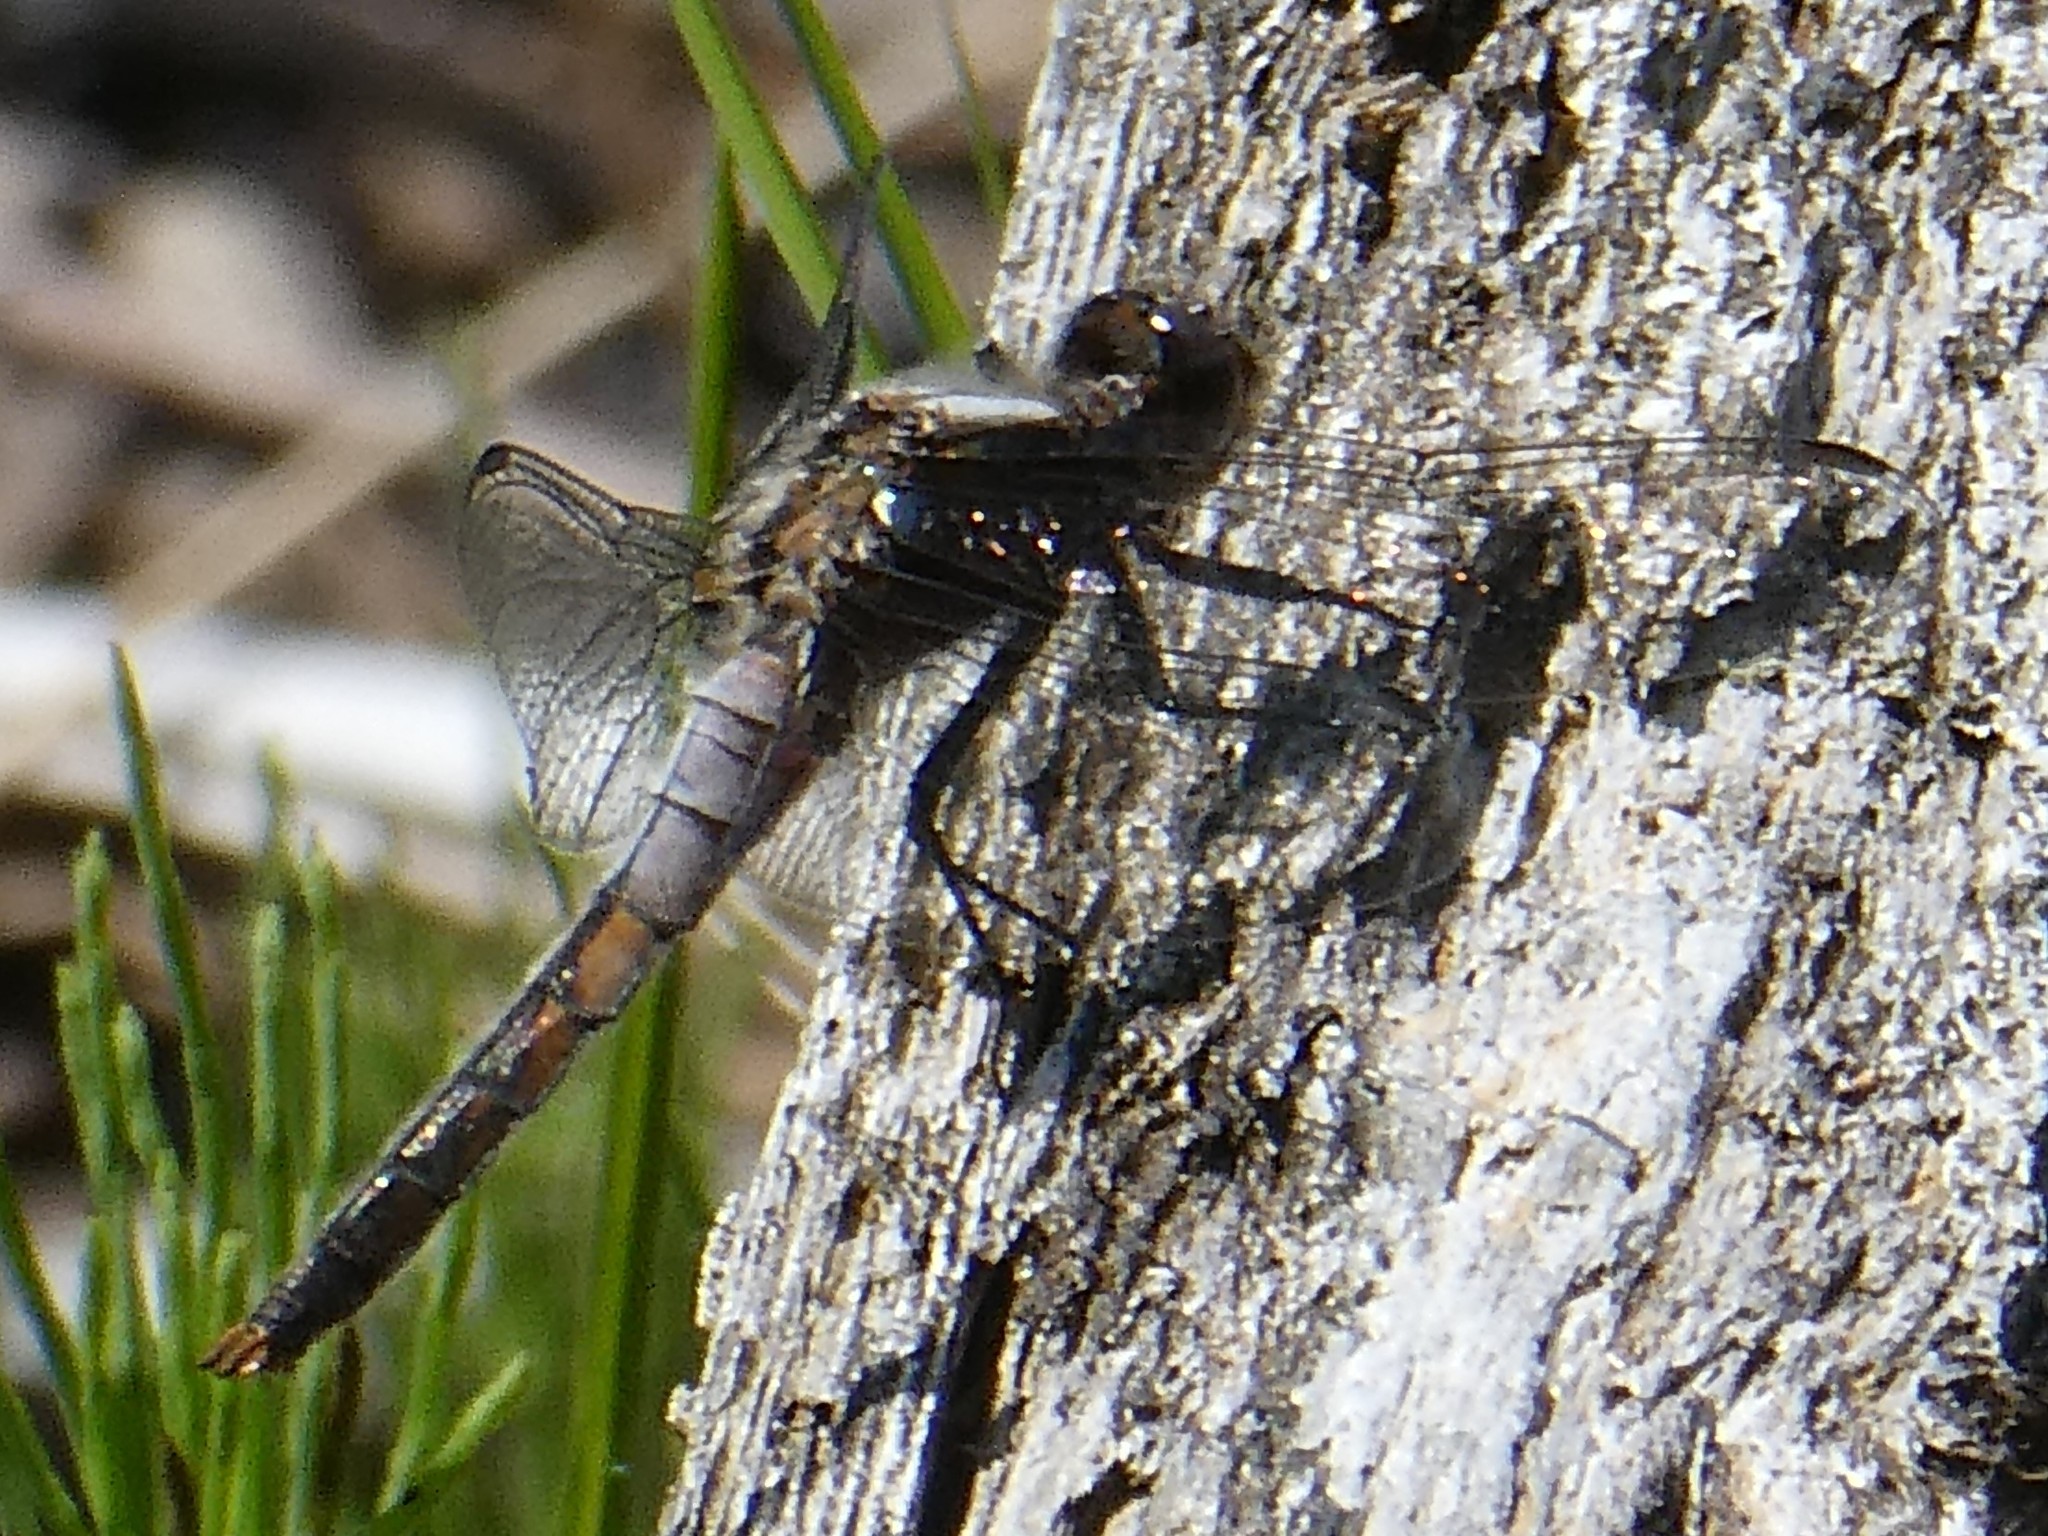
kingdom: Animalia
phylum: Arthropoda
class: Insecta
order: Odonata
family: Libellulidae
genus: Ladona
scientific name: Ladona julia
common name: Chalk-fronted corporal
